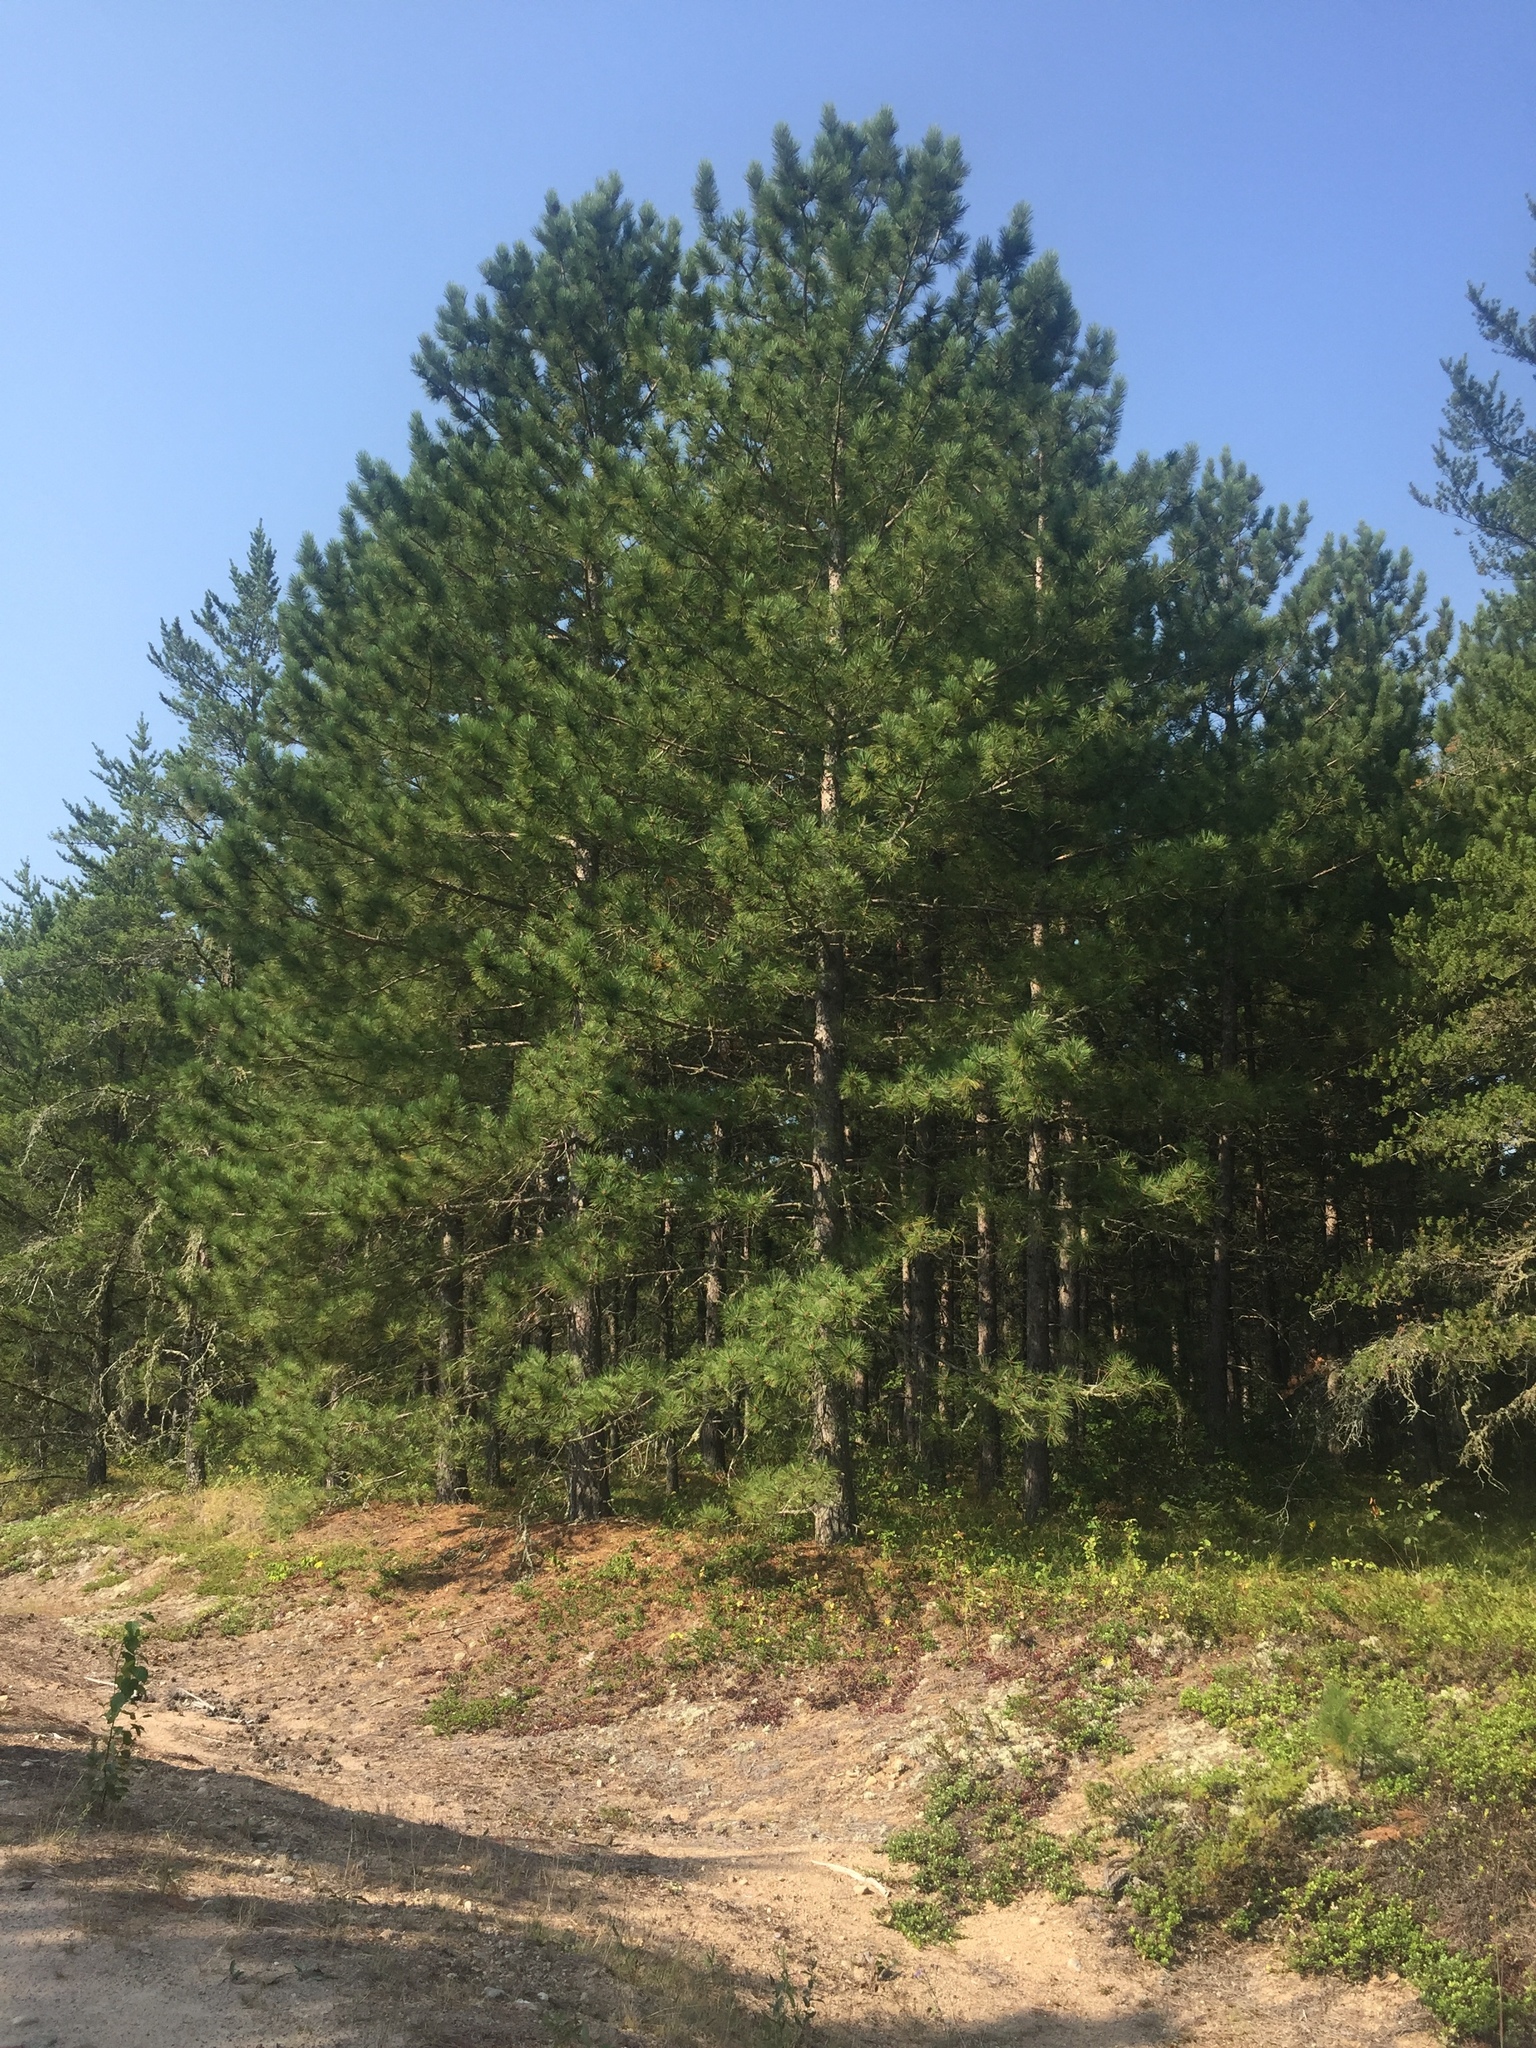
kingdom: Plantae
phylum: Tracheophyta
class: Pinopsida
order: Pinales
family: Pinaceae
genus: Pinus
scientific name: Pinus resinosa
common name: Norway pine
